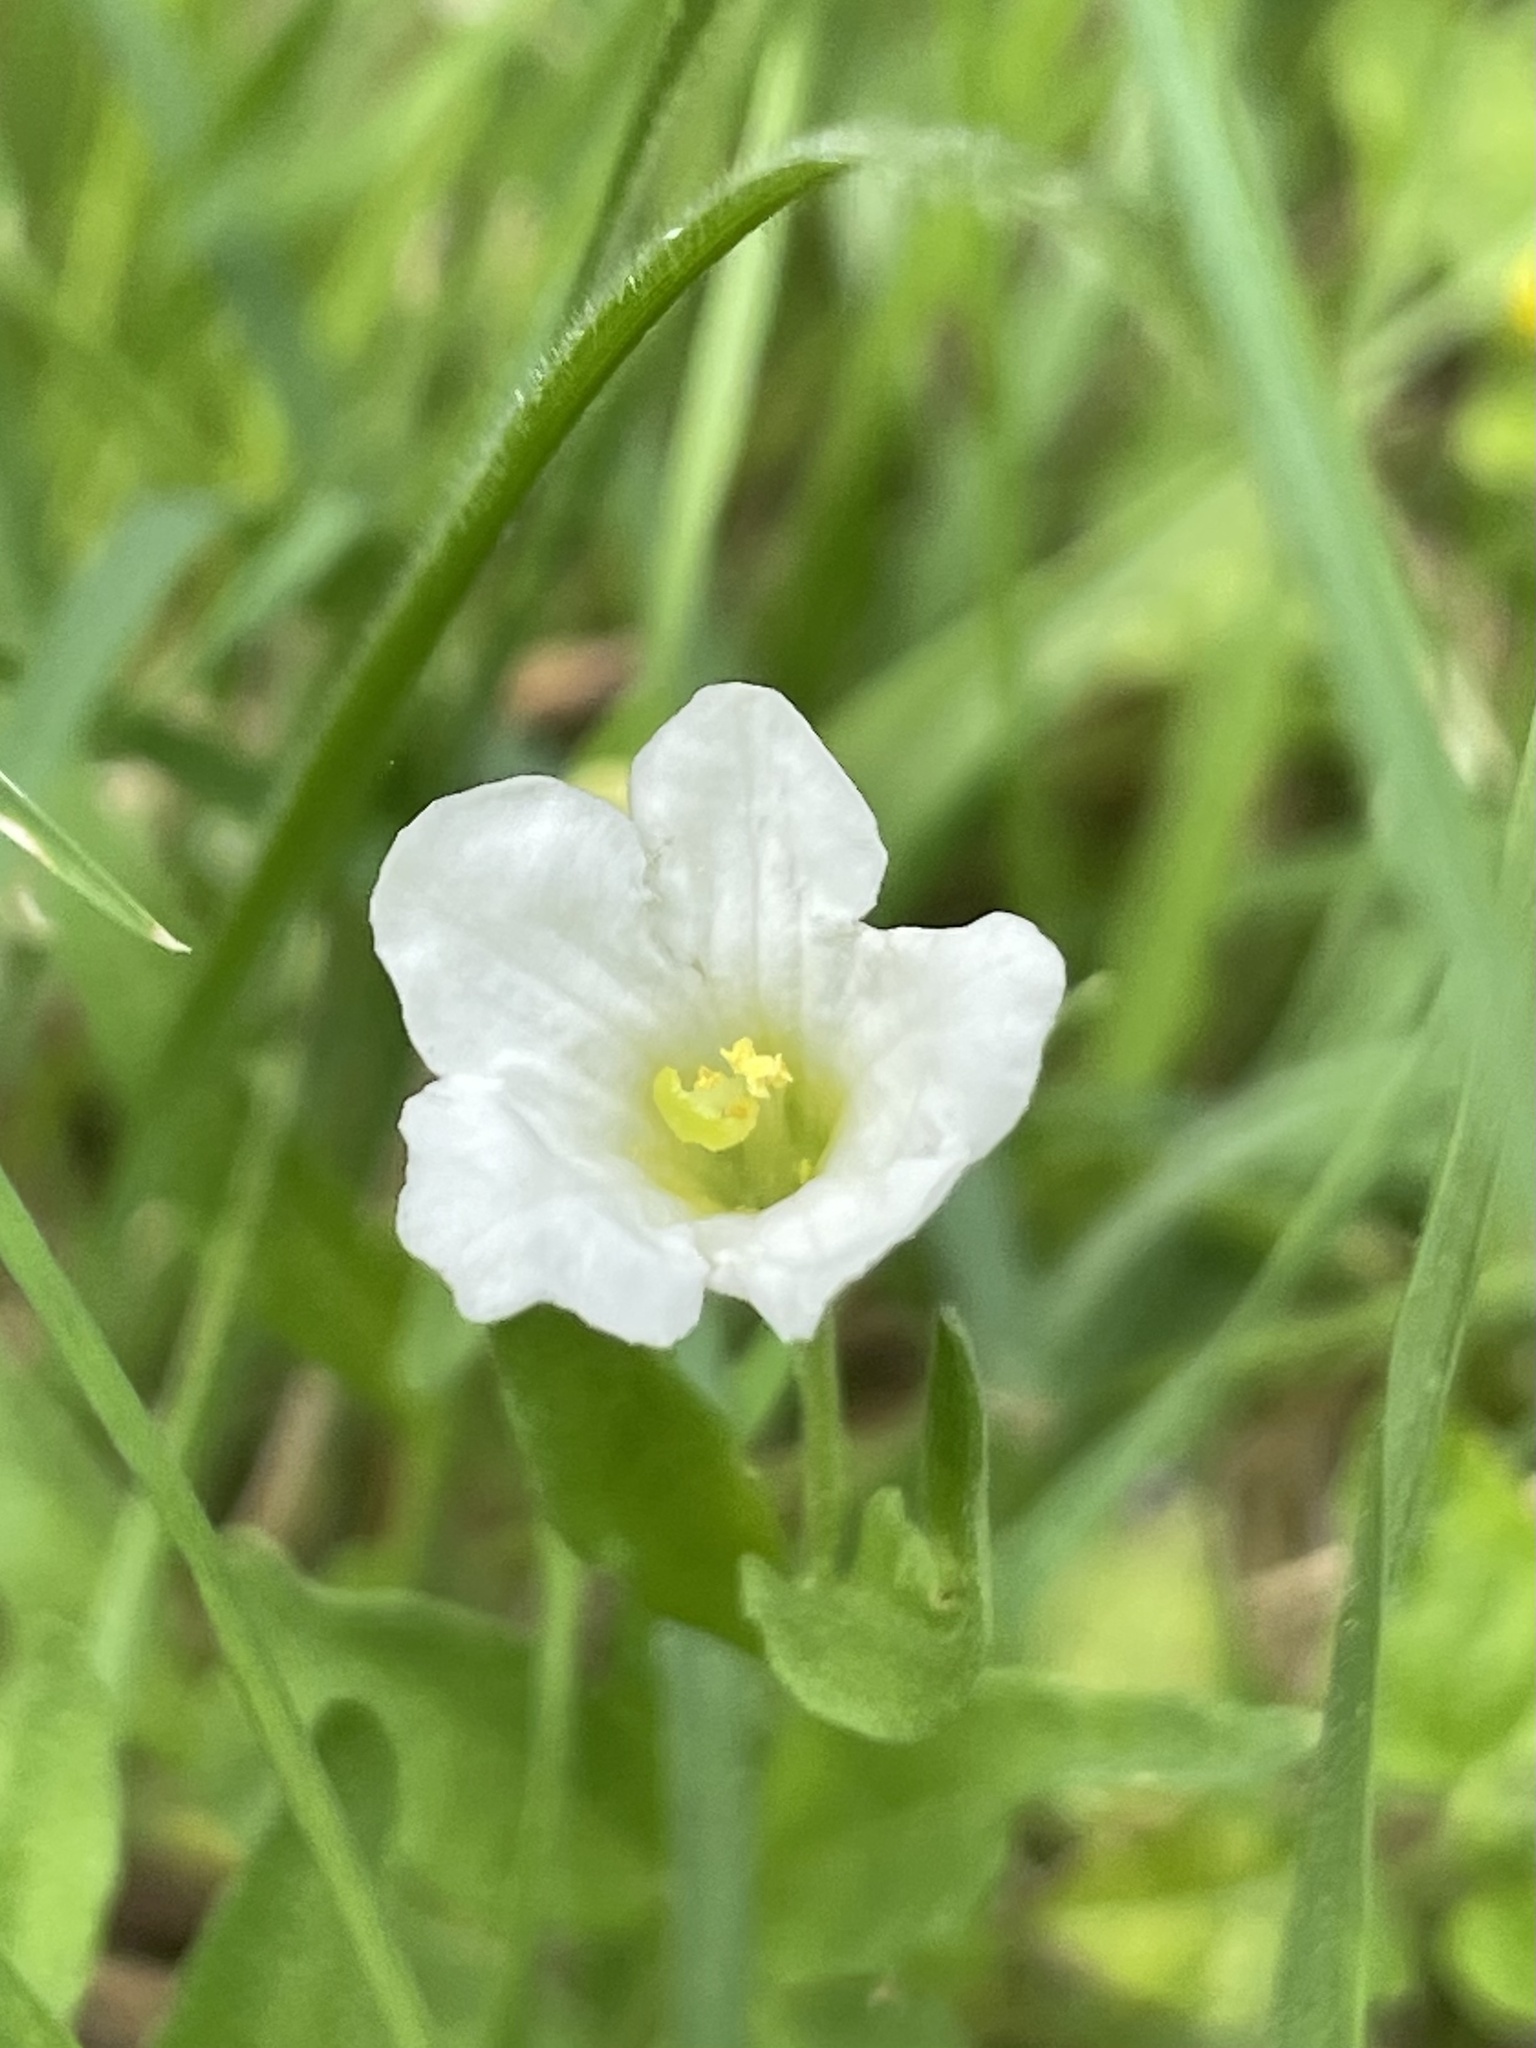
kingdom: Plantae
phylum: Tracheophyta
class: Magnoliopsida
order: Solanales
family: Solanaceae
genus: Salpiglossis
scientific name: Salpiglossis erecta
